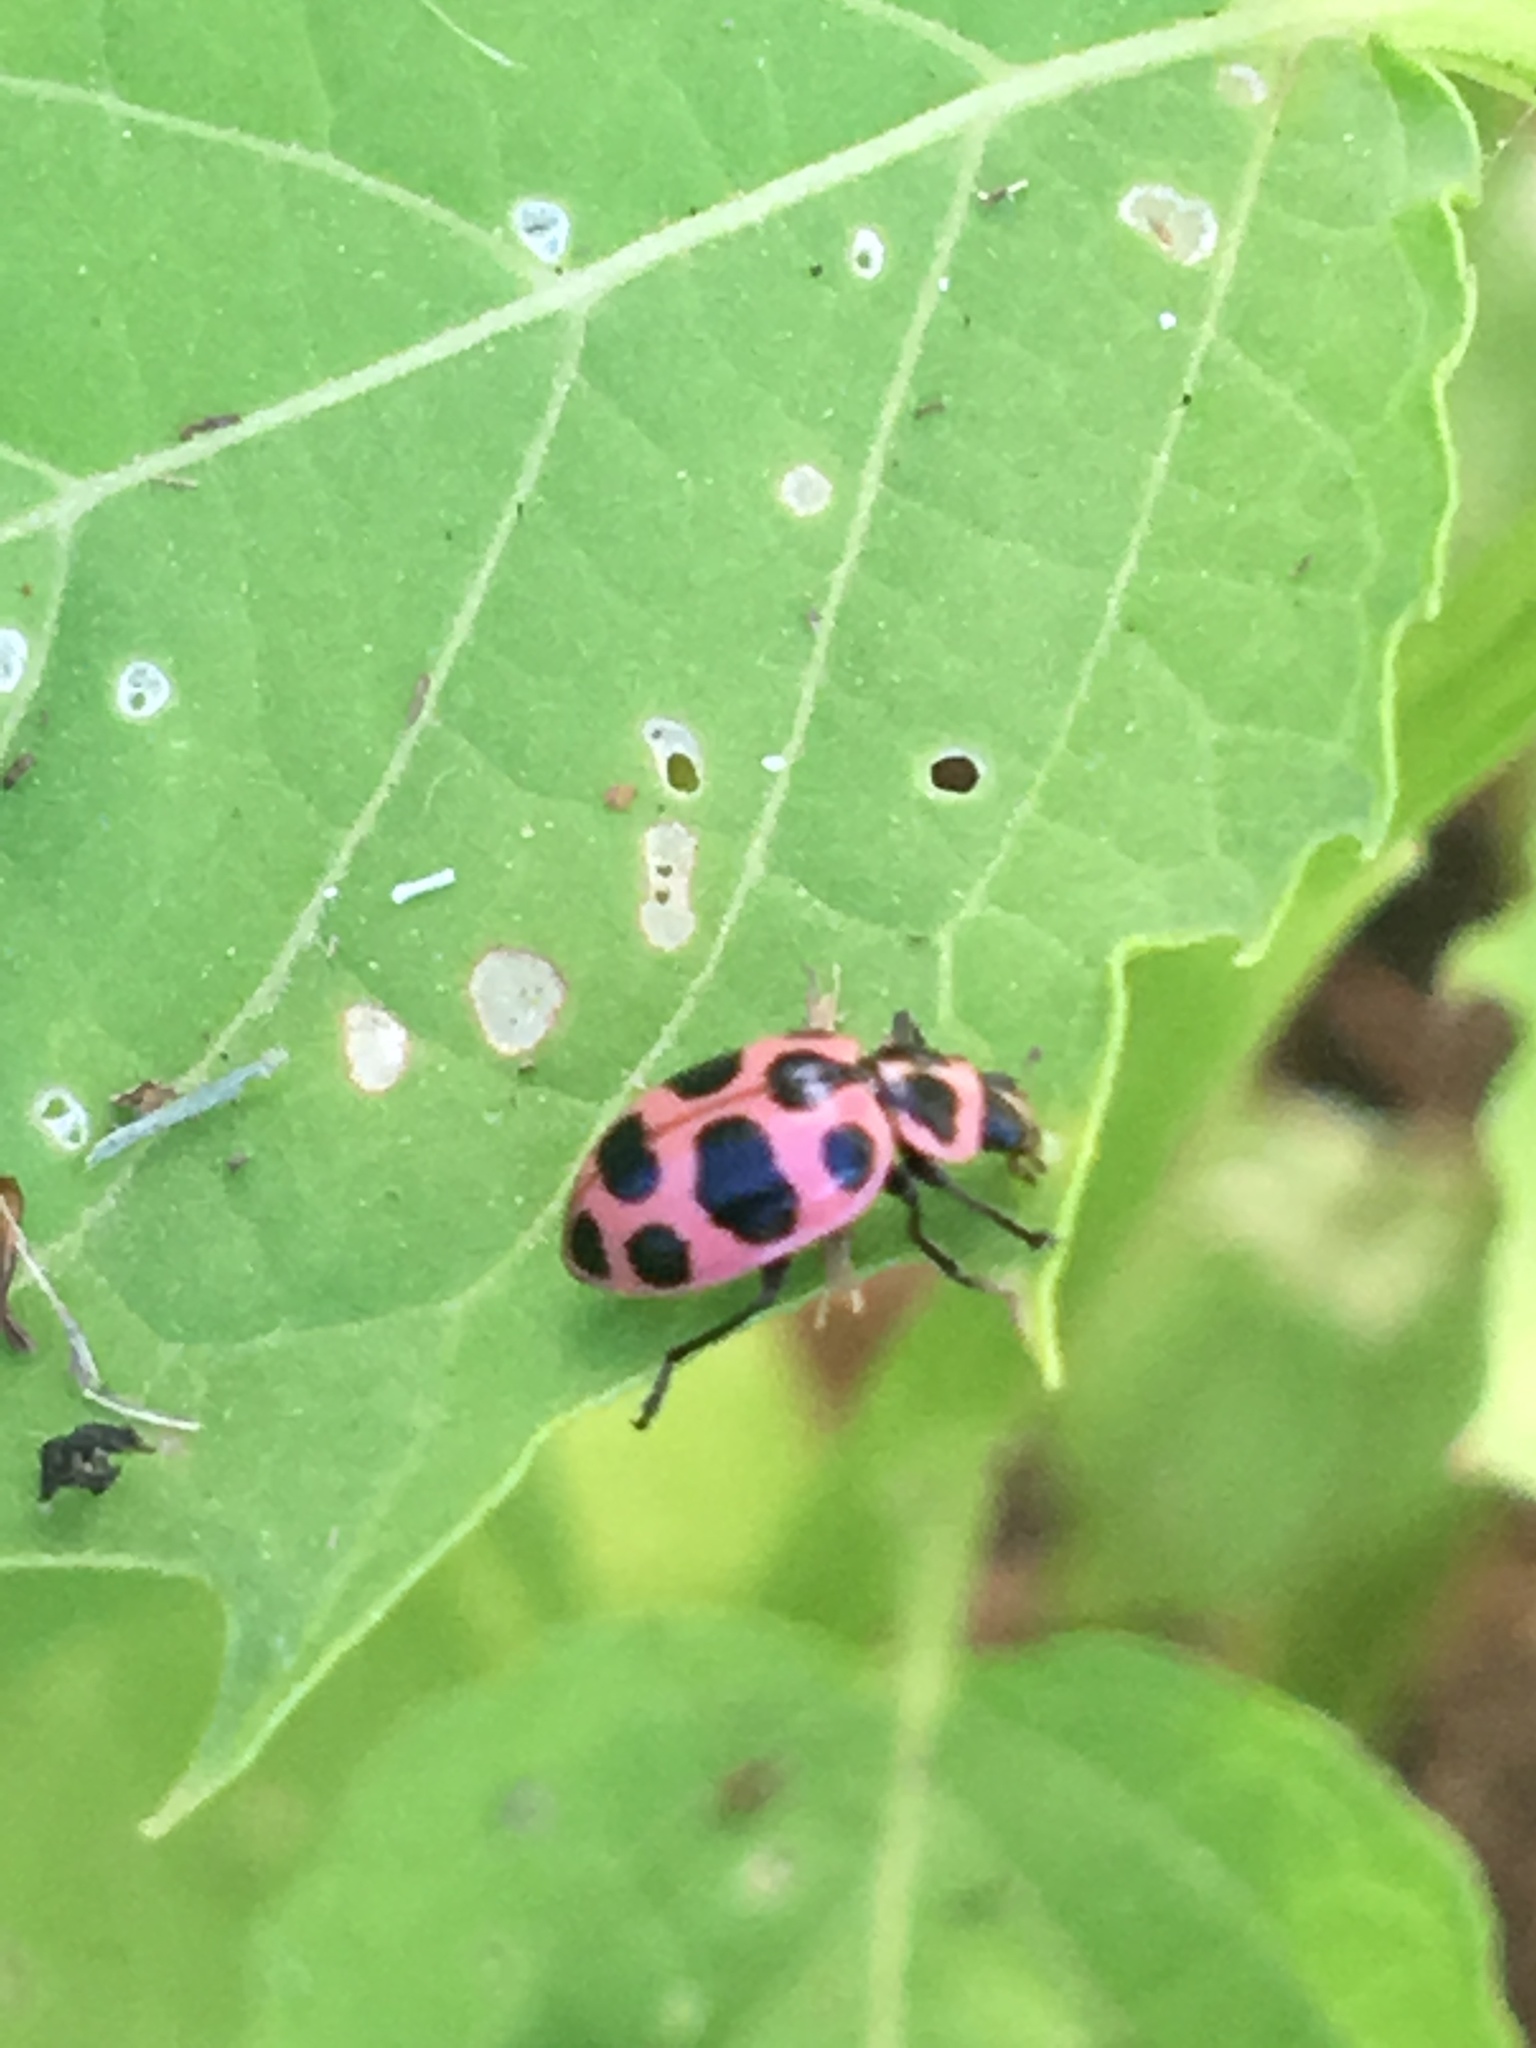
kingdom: Animalia
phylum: Arthropoda
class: Insecta
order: Coleoptera
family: Coccinellidae
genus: Coleomegilla
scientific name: Coleomegilla maculata
